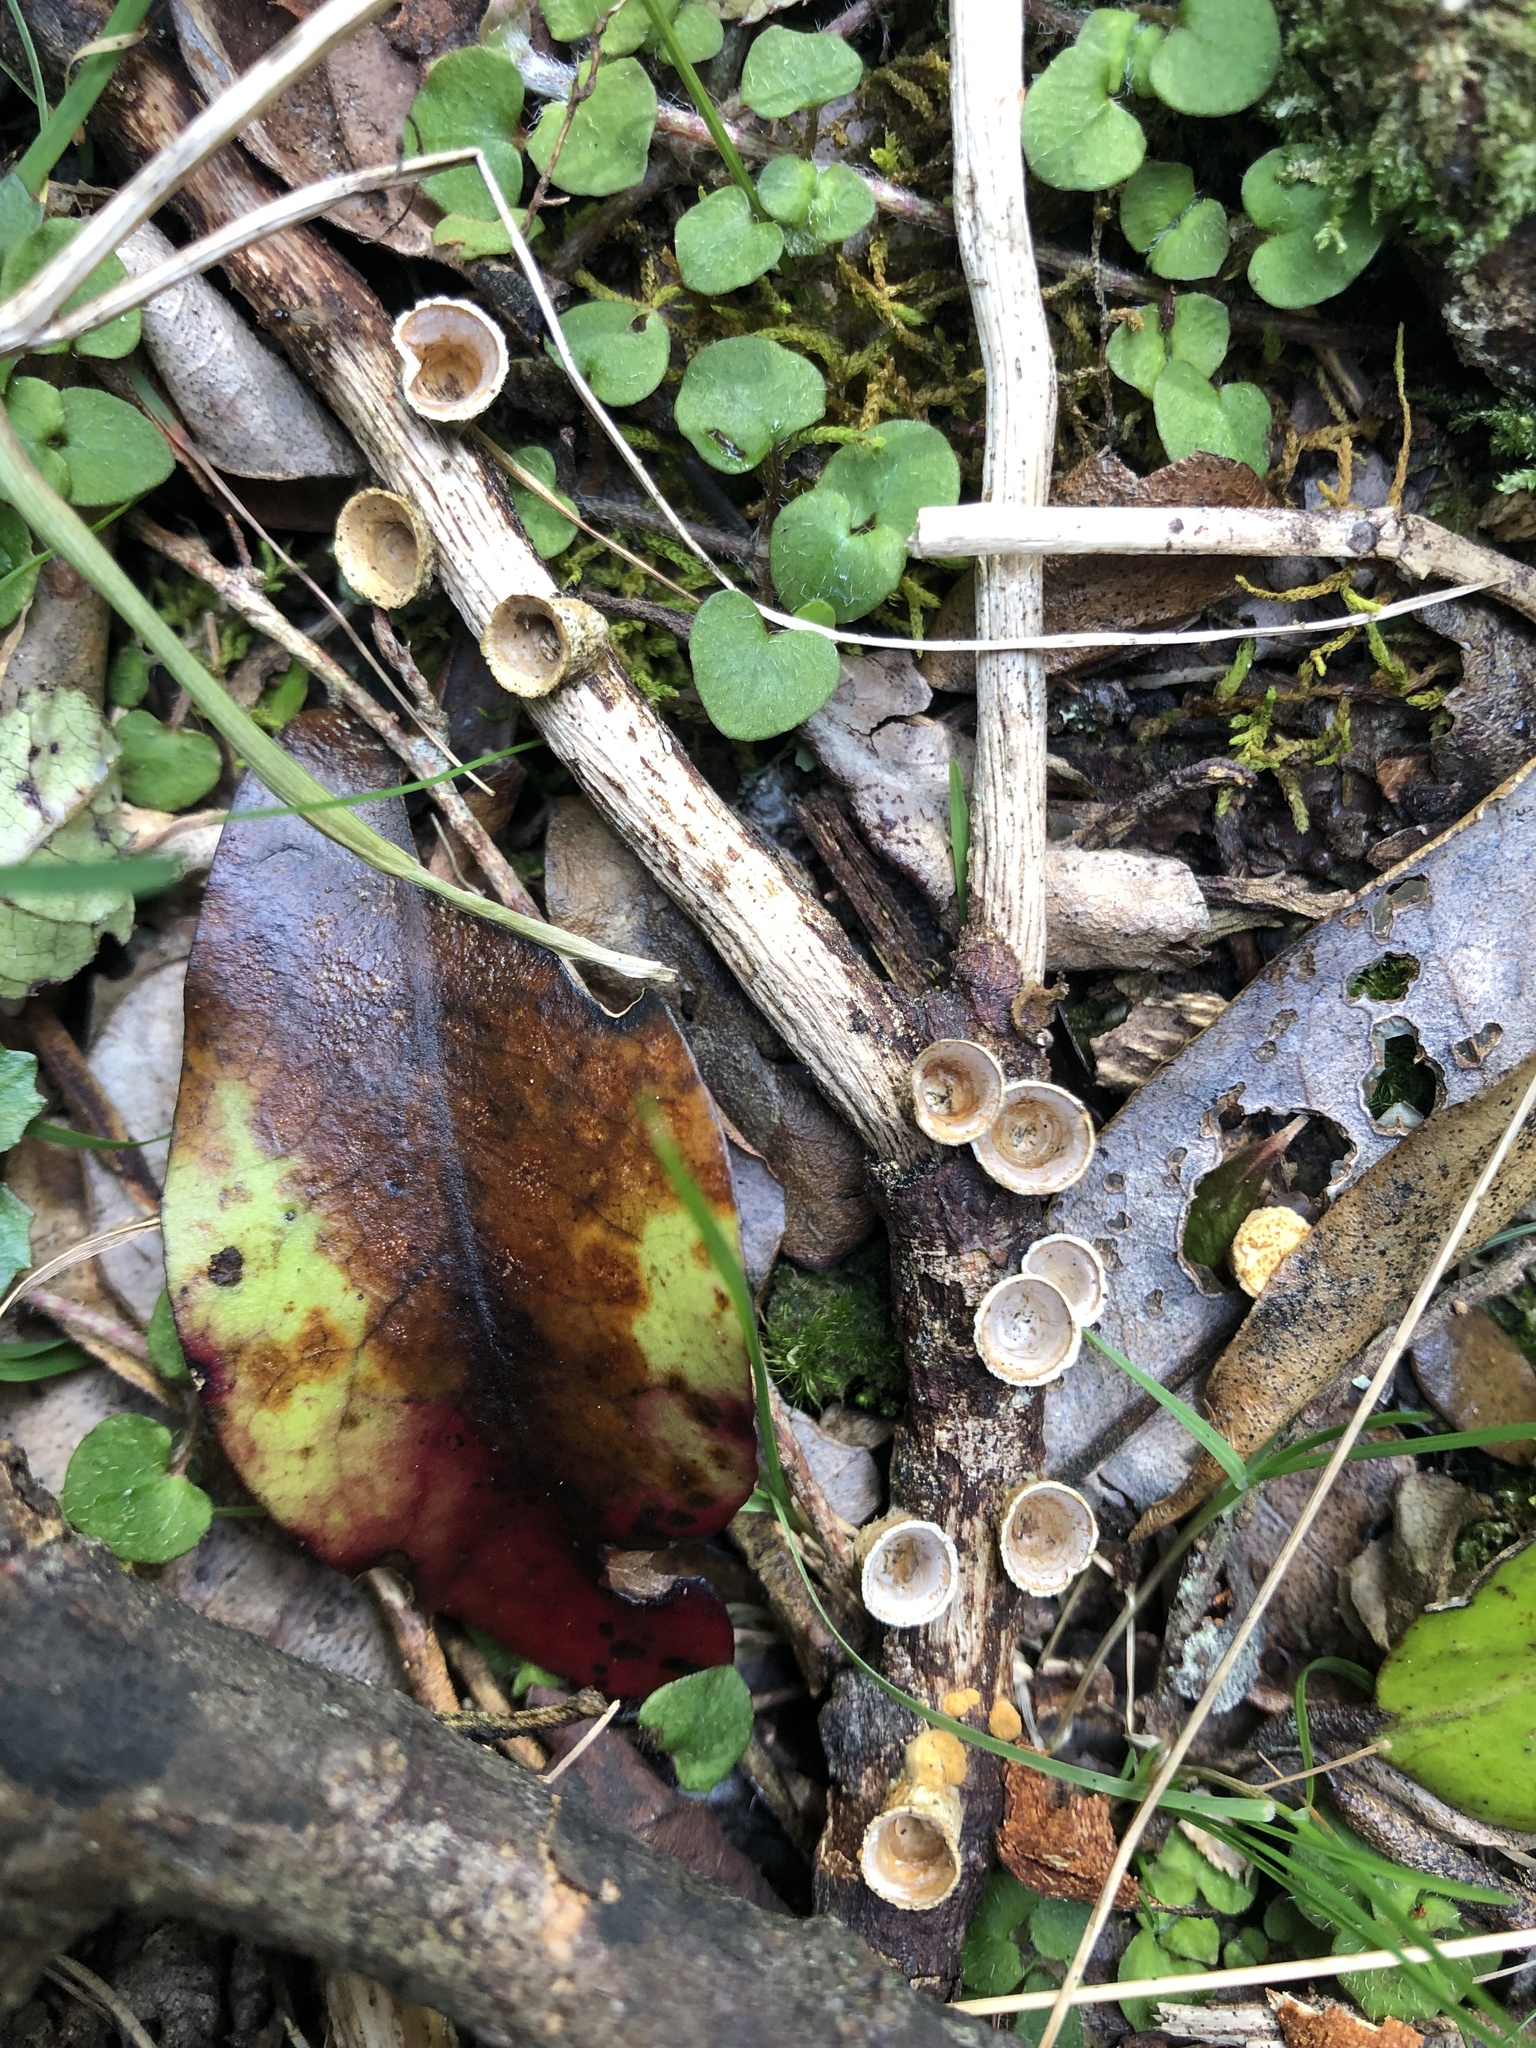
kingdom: Fungi
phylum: Basidiomycota
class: Agaricomycetes
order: Agaricales
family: Nidulariaceae
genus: Crucibulum
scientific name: Crucibulum simile
